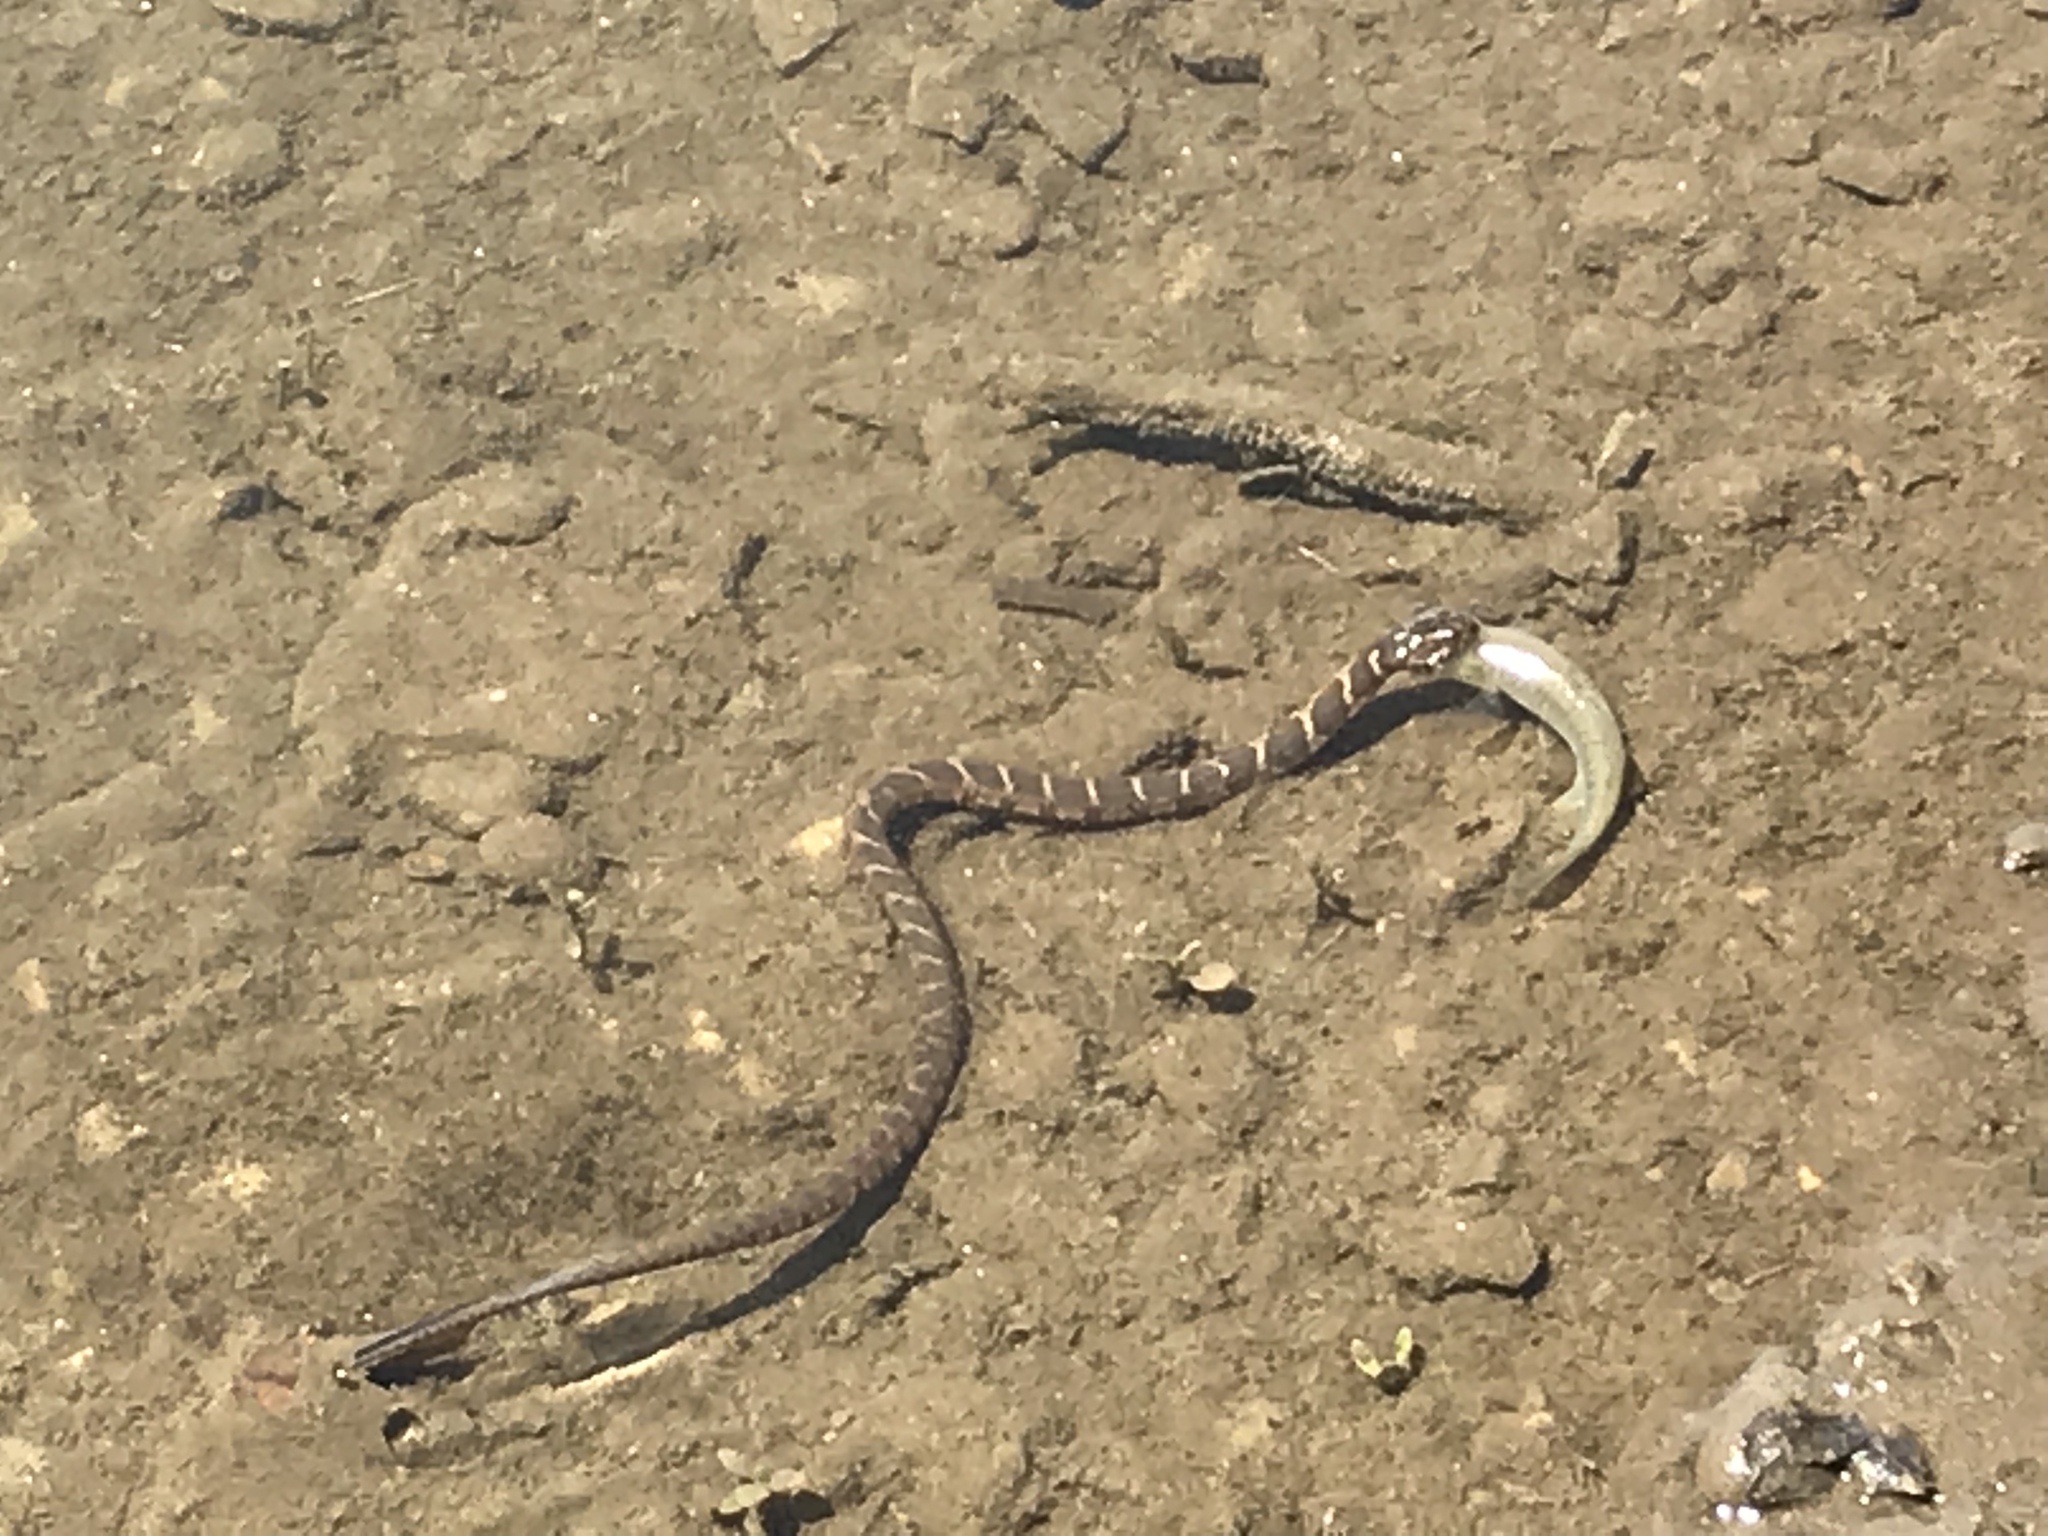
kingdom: Animalia
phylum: Chordata
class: Squamata
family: Colubridae
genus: Nerodia
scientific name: Nerodia sipedon
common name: Northern water snake
